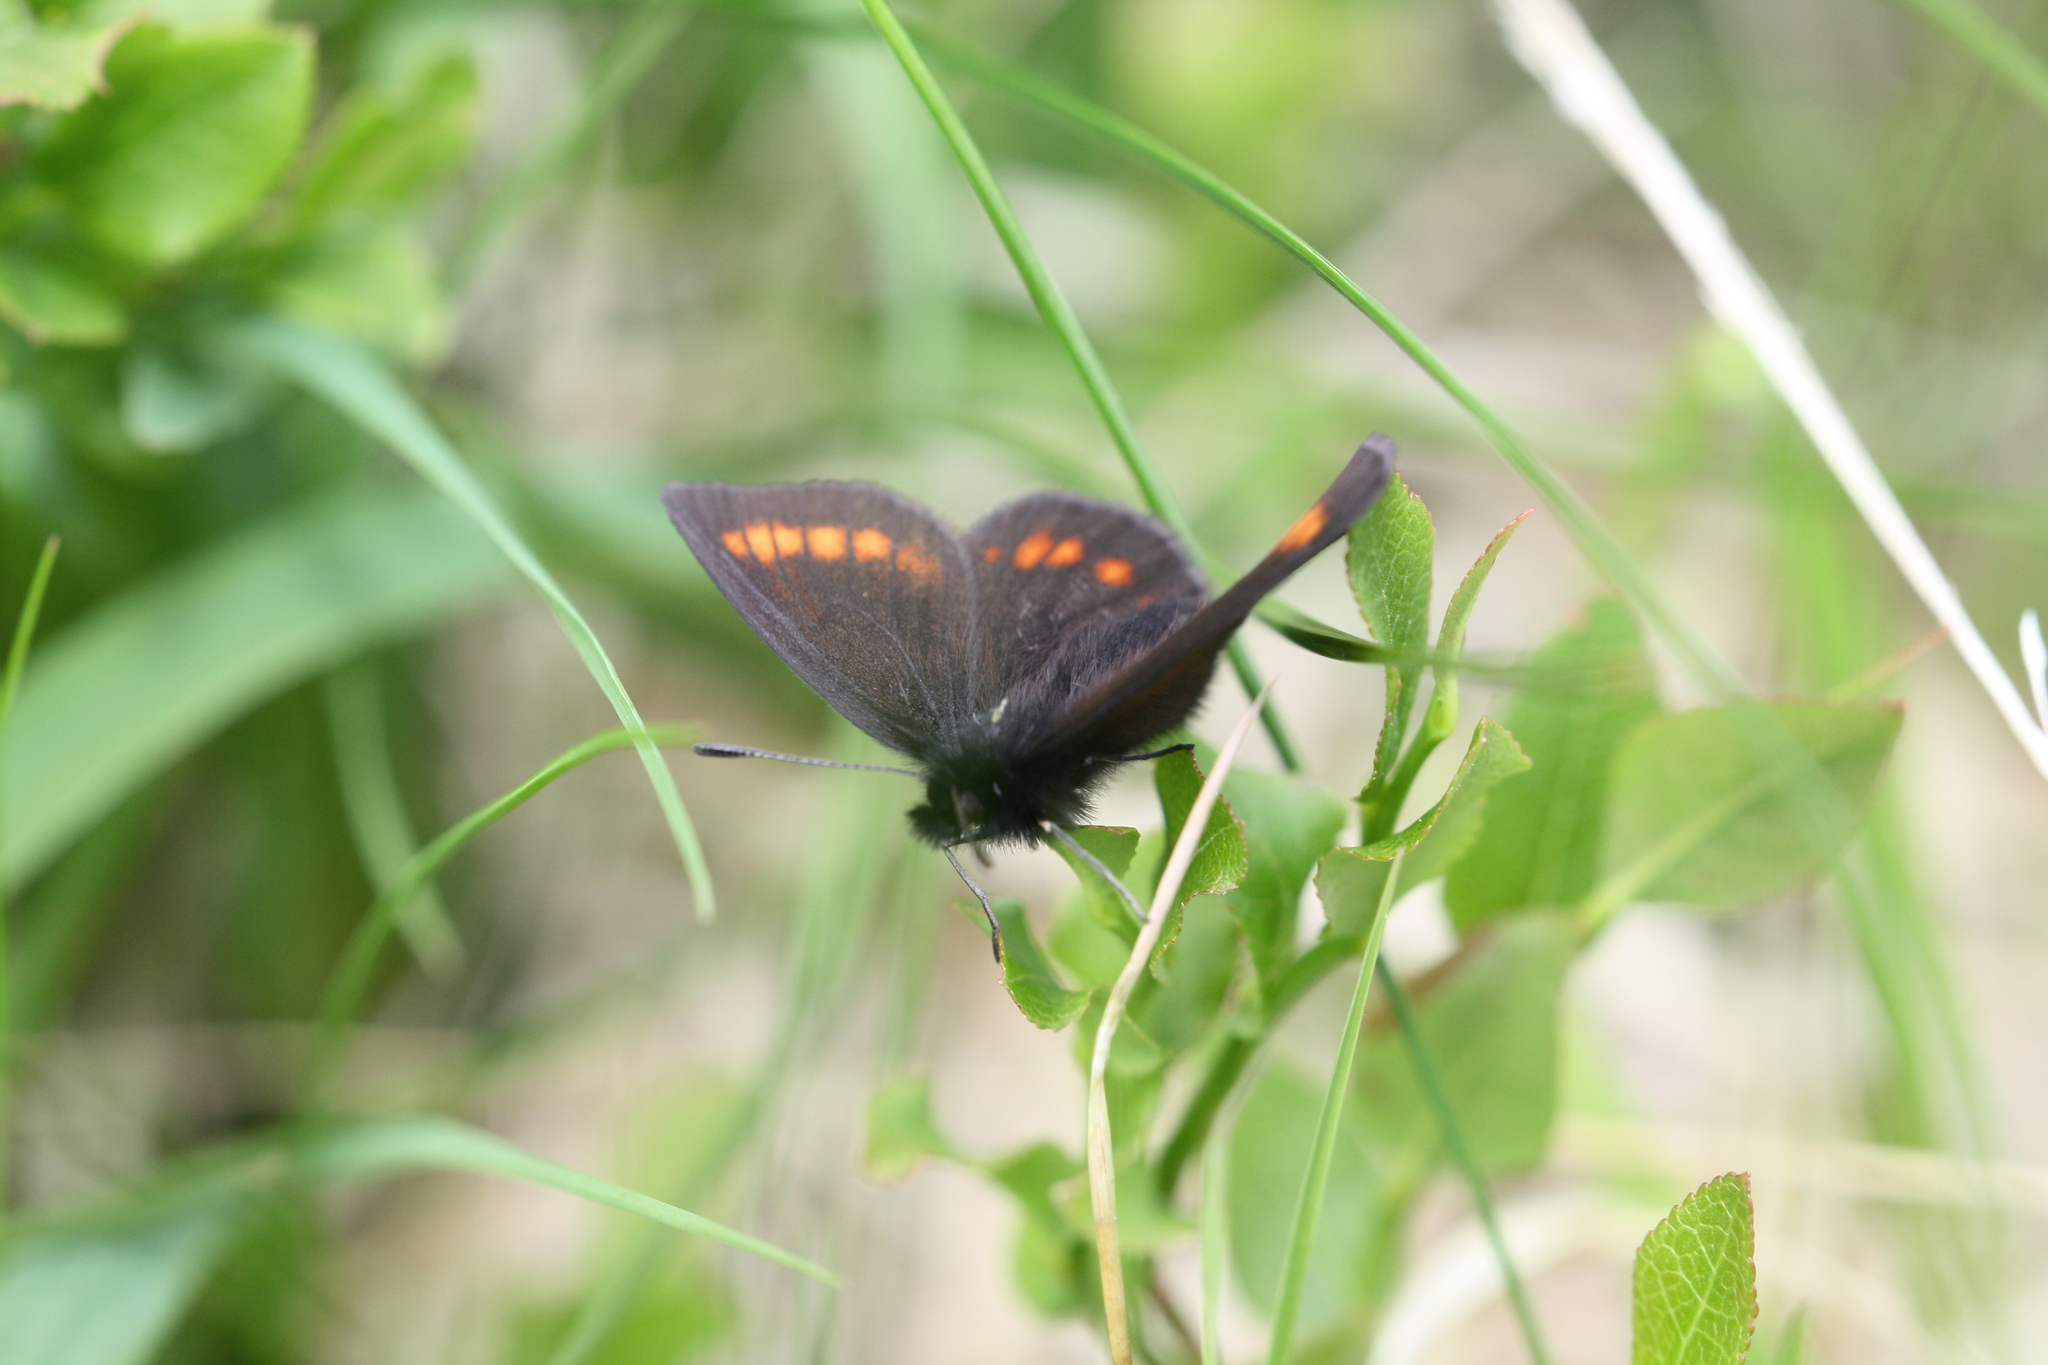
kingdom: Animalia
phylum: Arthropoda
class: Insecta
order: Lepidoptera
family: Nymphalidae
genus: Erebia
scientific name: Erebia pharte
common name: Blind ringlet
